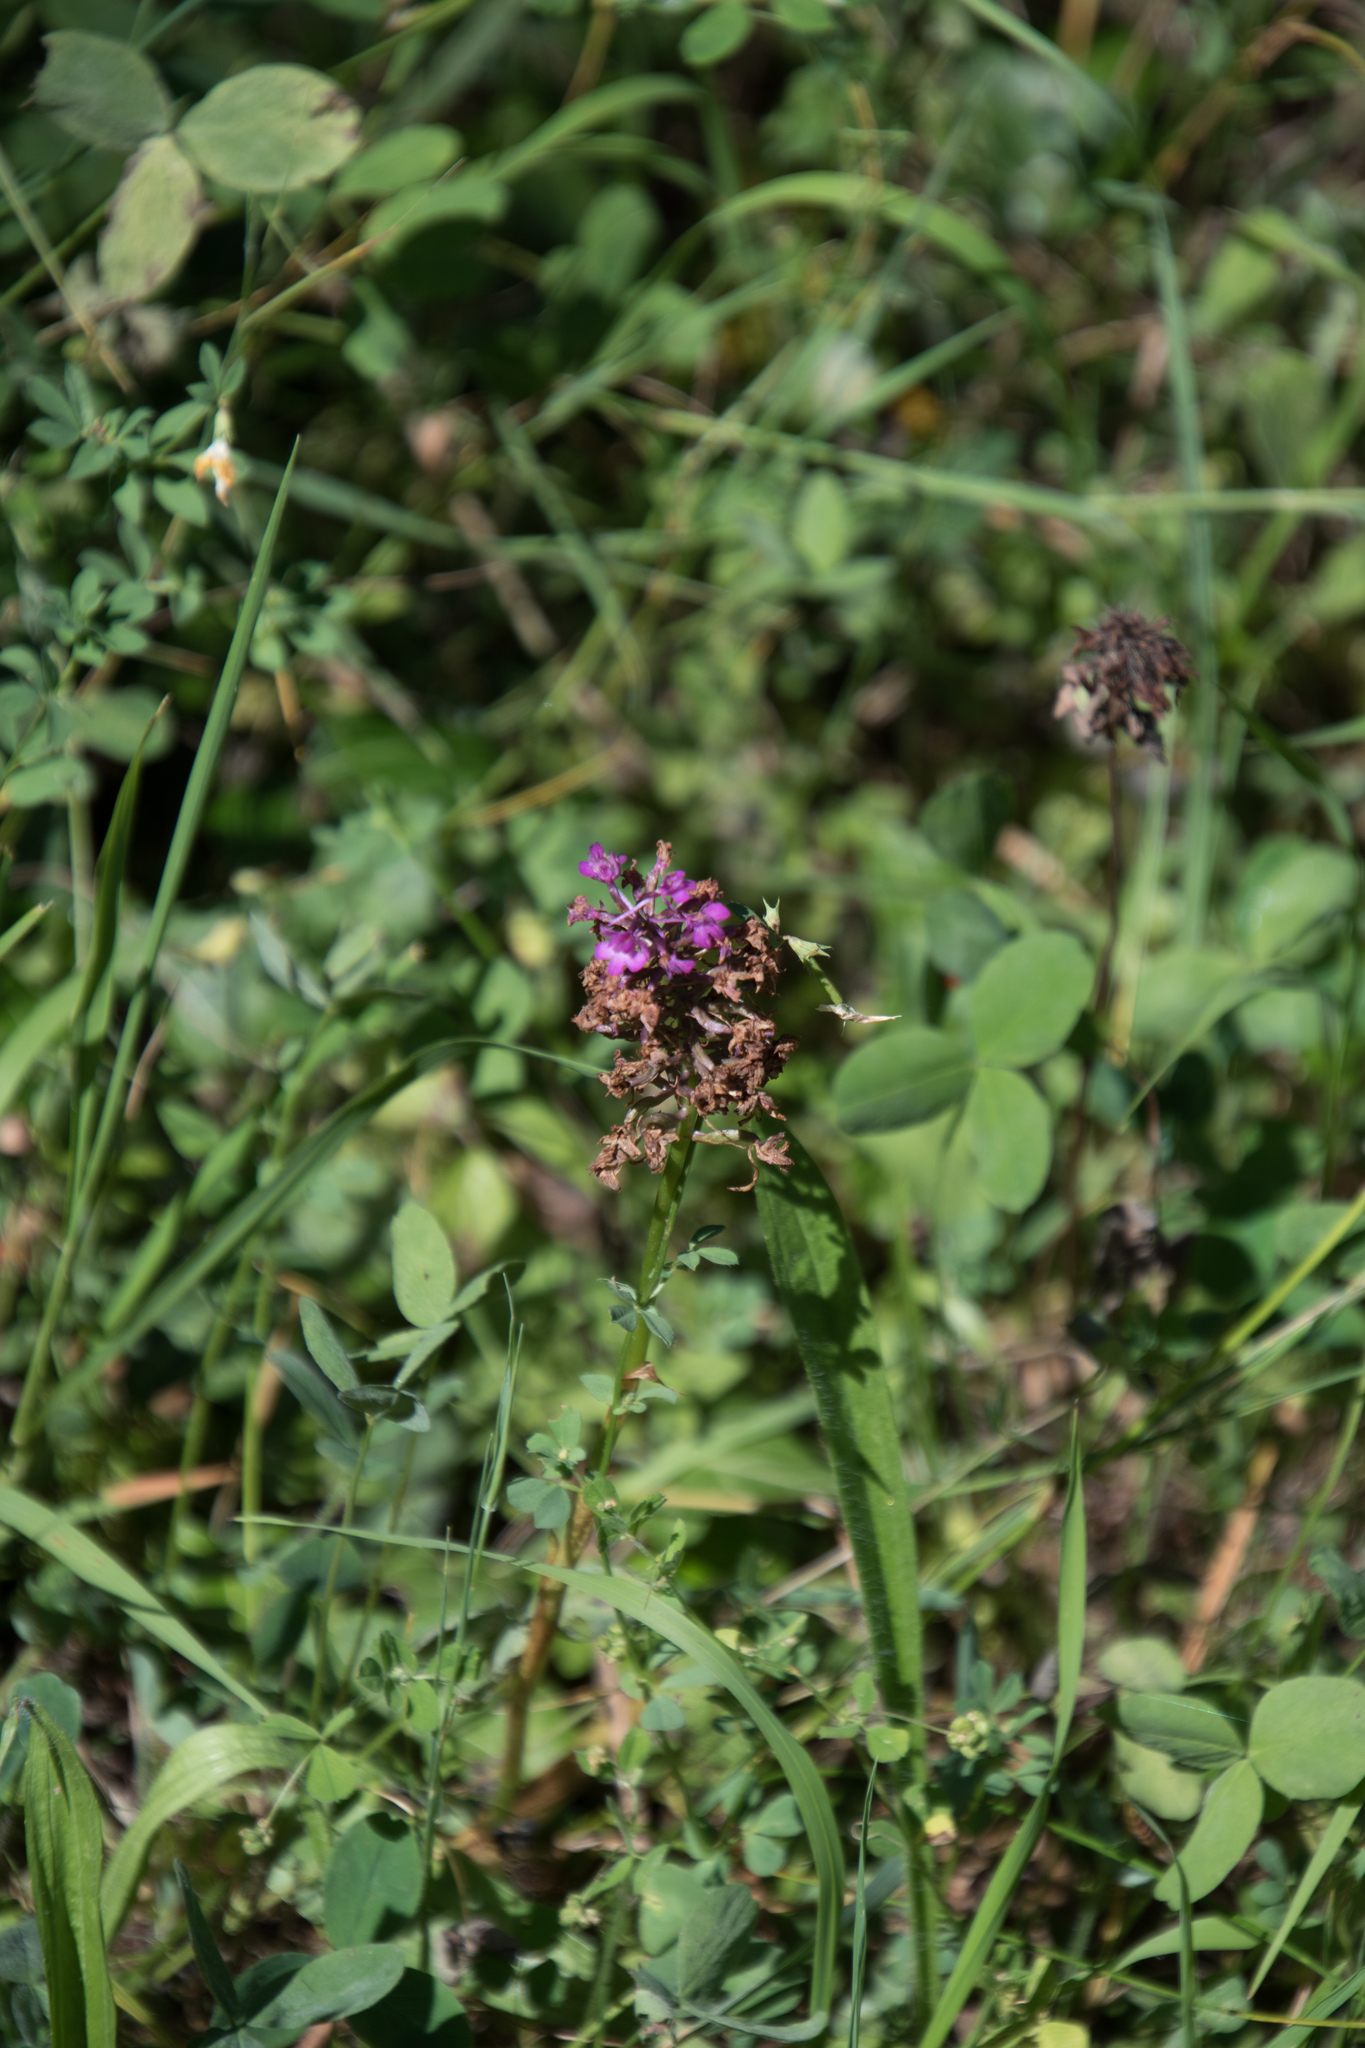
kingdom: Plantae
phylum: Tracheophyta
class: Liliopsida
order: Asparagales
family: Orchidaceae
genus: Anacamptis
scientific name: Anacamptis pyramidalis
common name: Pyramidal orchid
